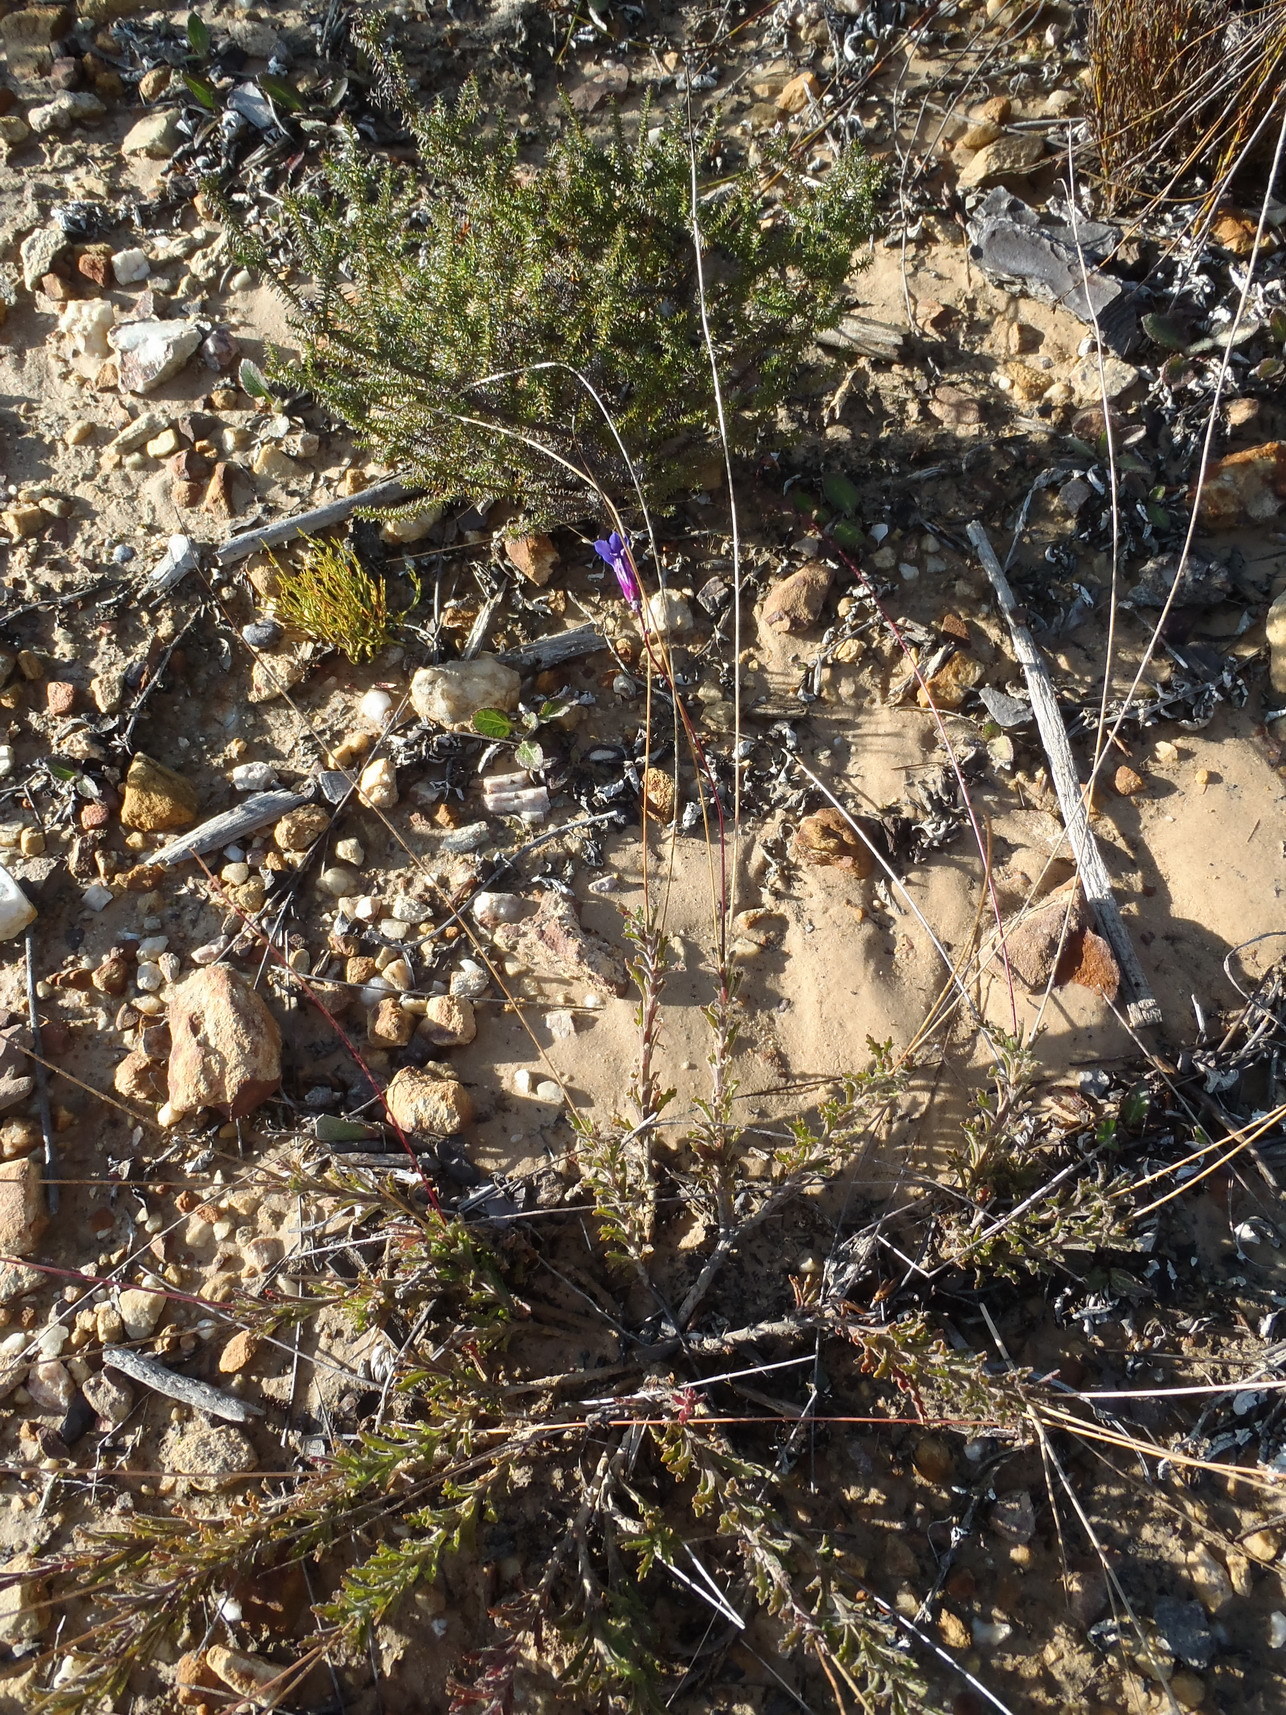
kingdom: Plantae
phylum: Tracheophyta
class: Magnoliopsida
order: Asterales
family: Campanulaceae
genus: Lobelia
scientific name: Lobelia tomentosa
